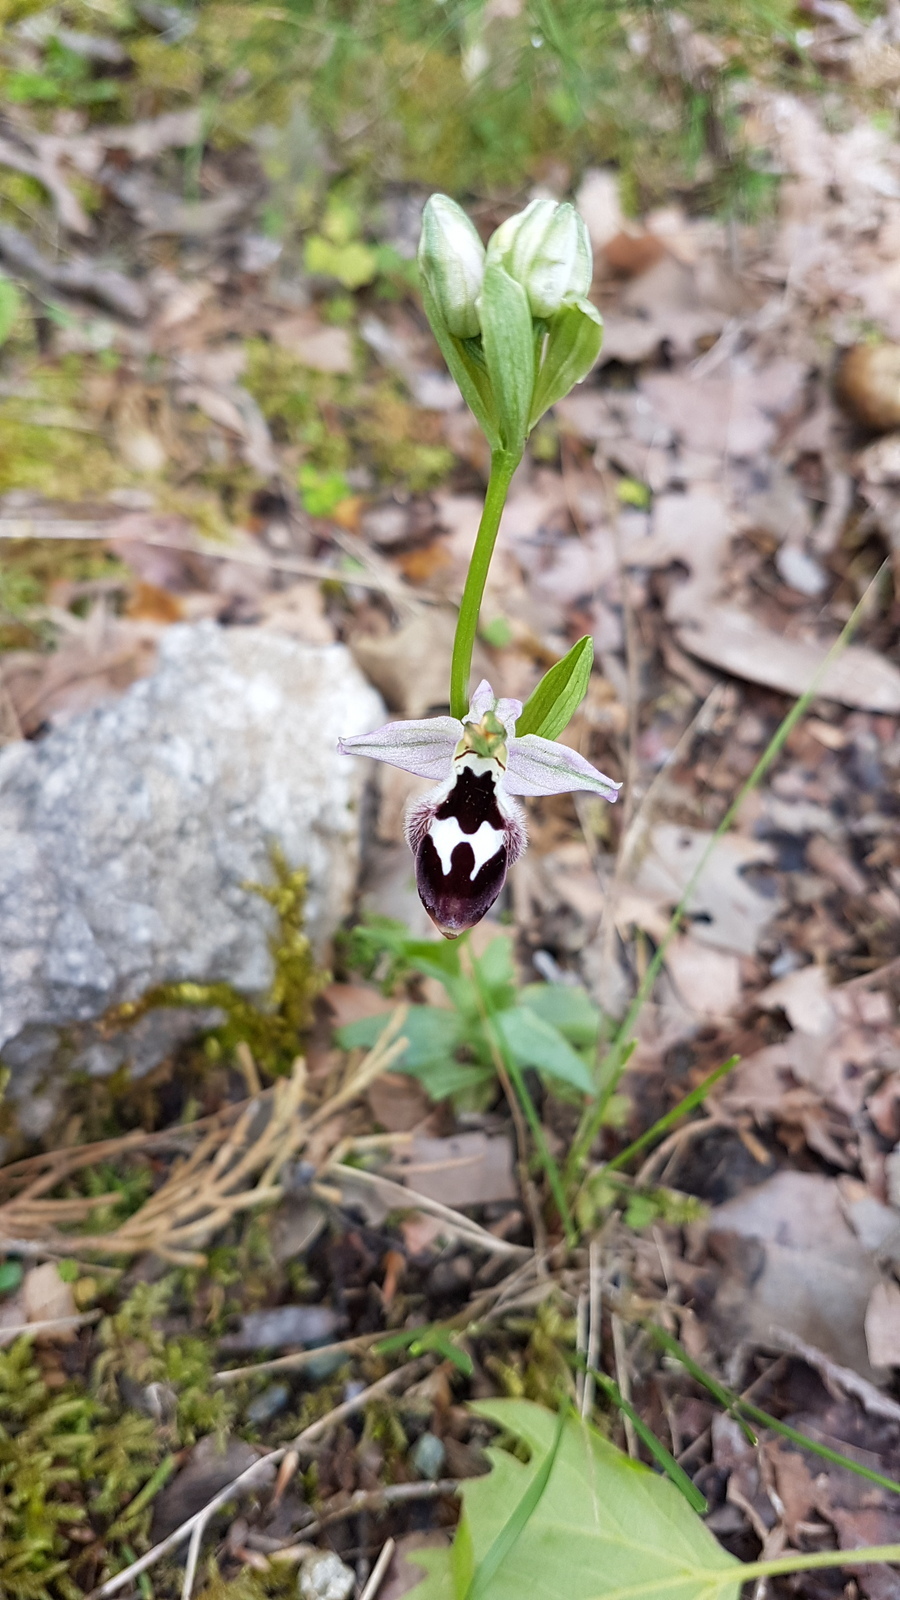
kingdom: Plantae
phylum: Tracheophyta
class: Liliopsida
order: Asparagales
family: Orchidaceae
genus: Ophrys
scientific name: Ophrys reinholdii
